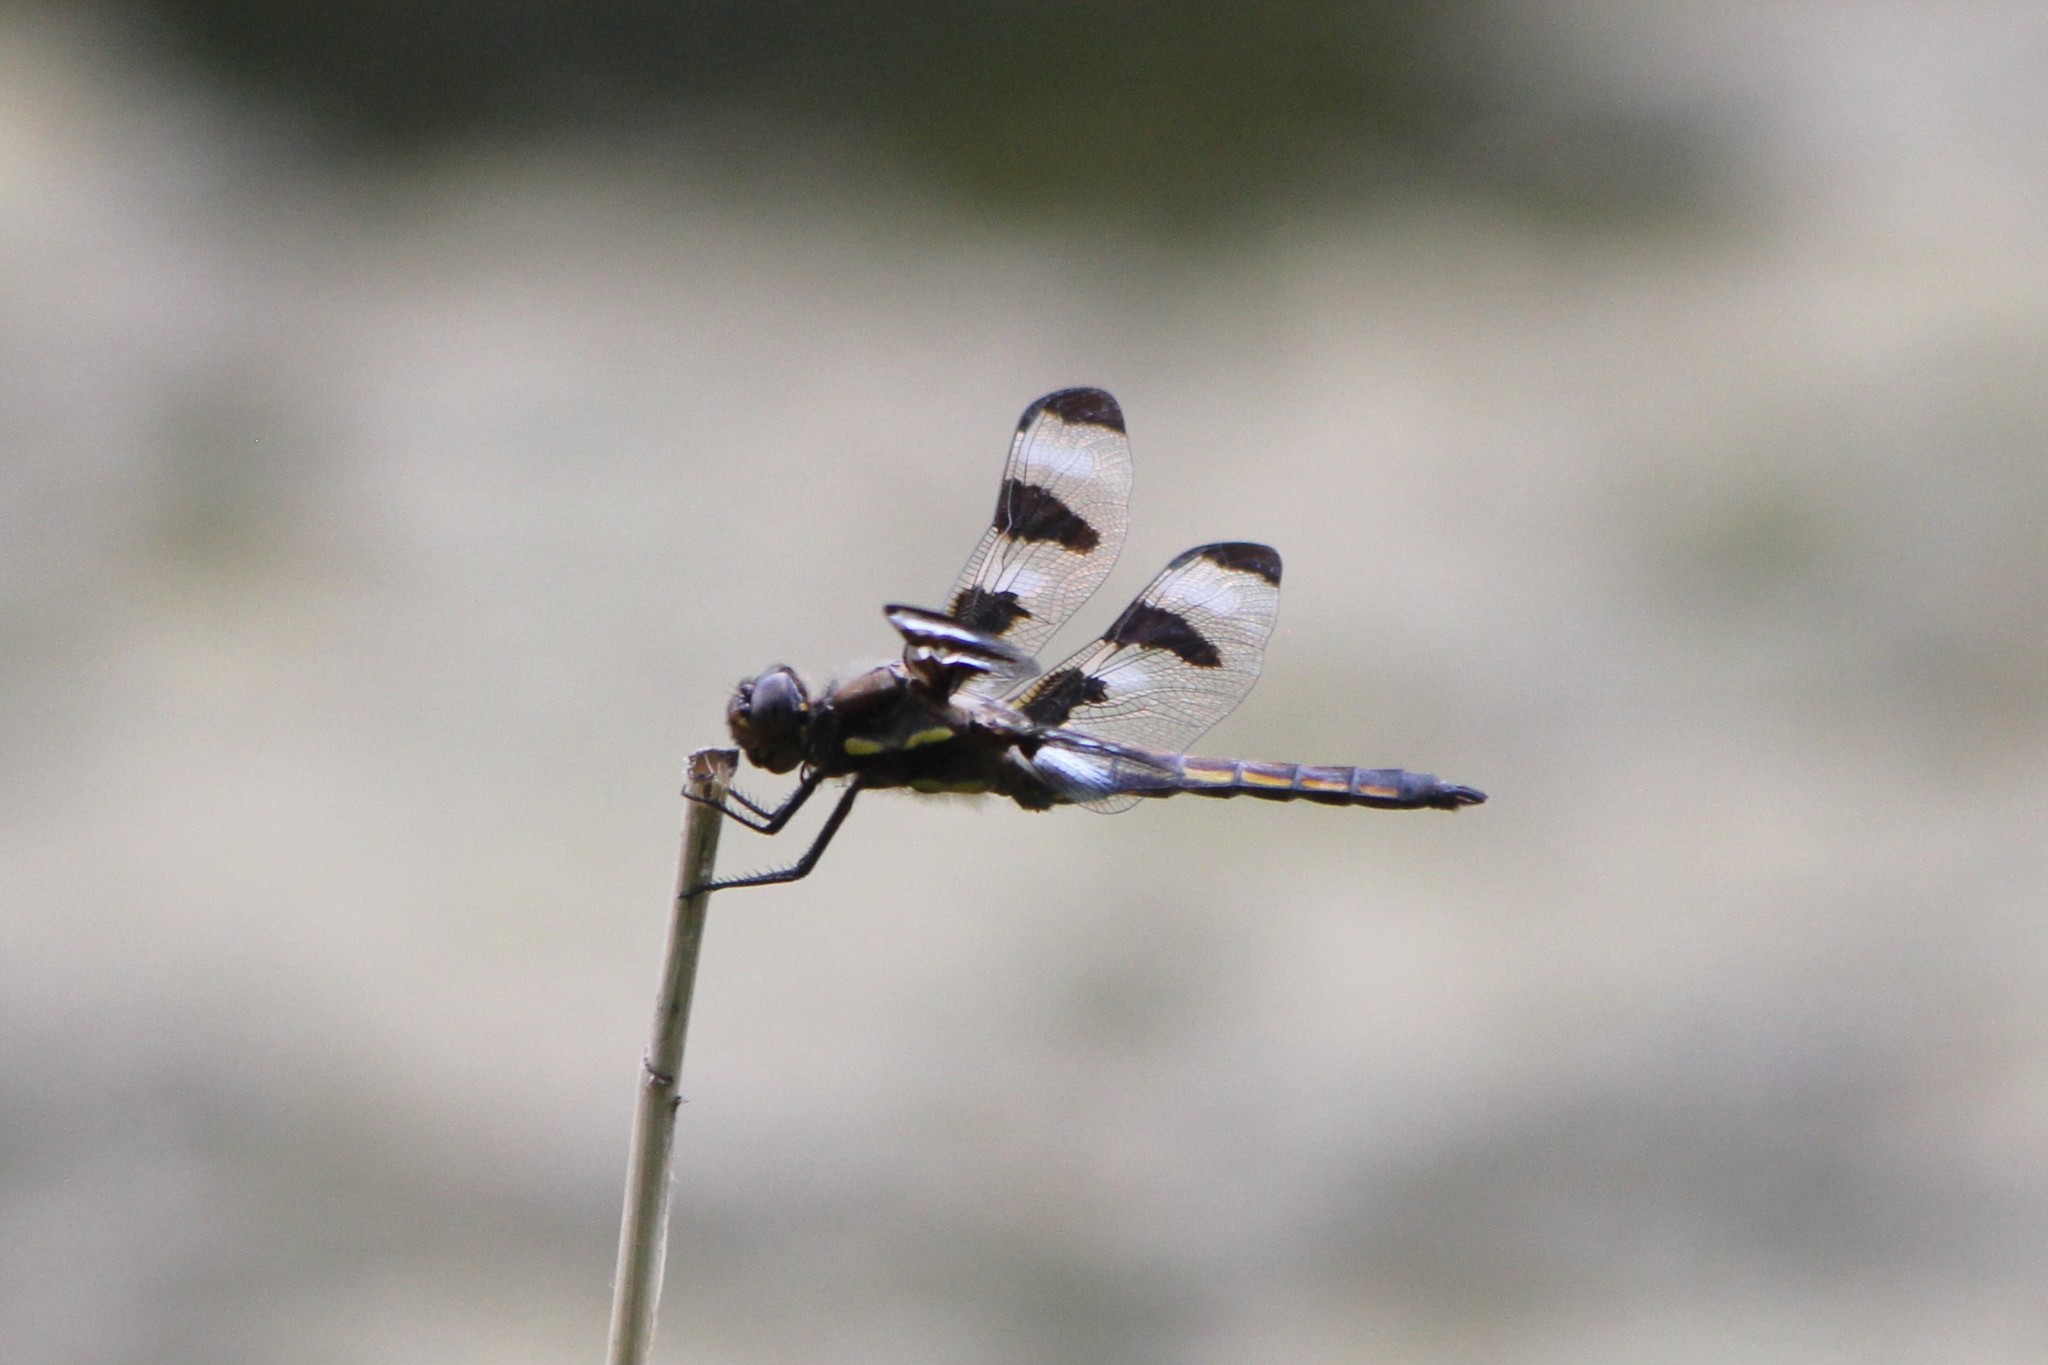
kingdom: Animalia
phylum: Arthropoda
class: Insecta
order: Odonata
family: Libellulidae
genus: Libellula
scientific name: Libellula pulchella
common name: Twelve-spotted skimmer
